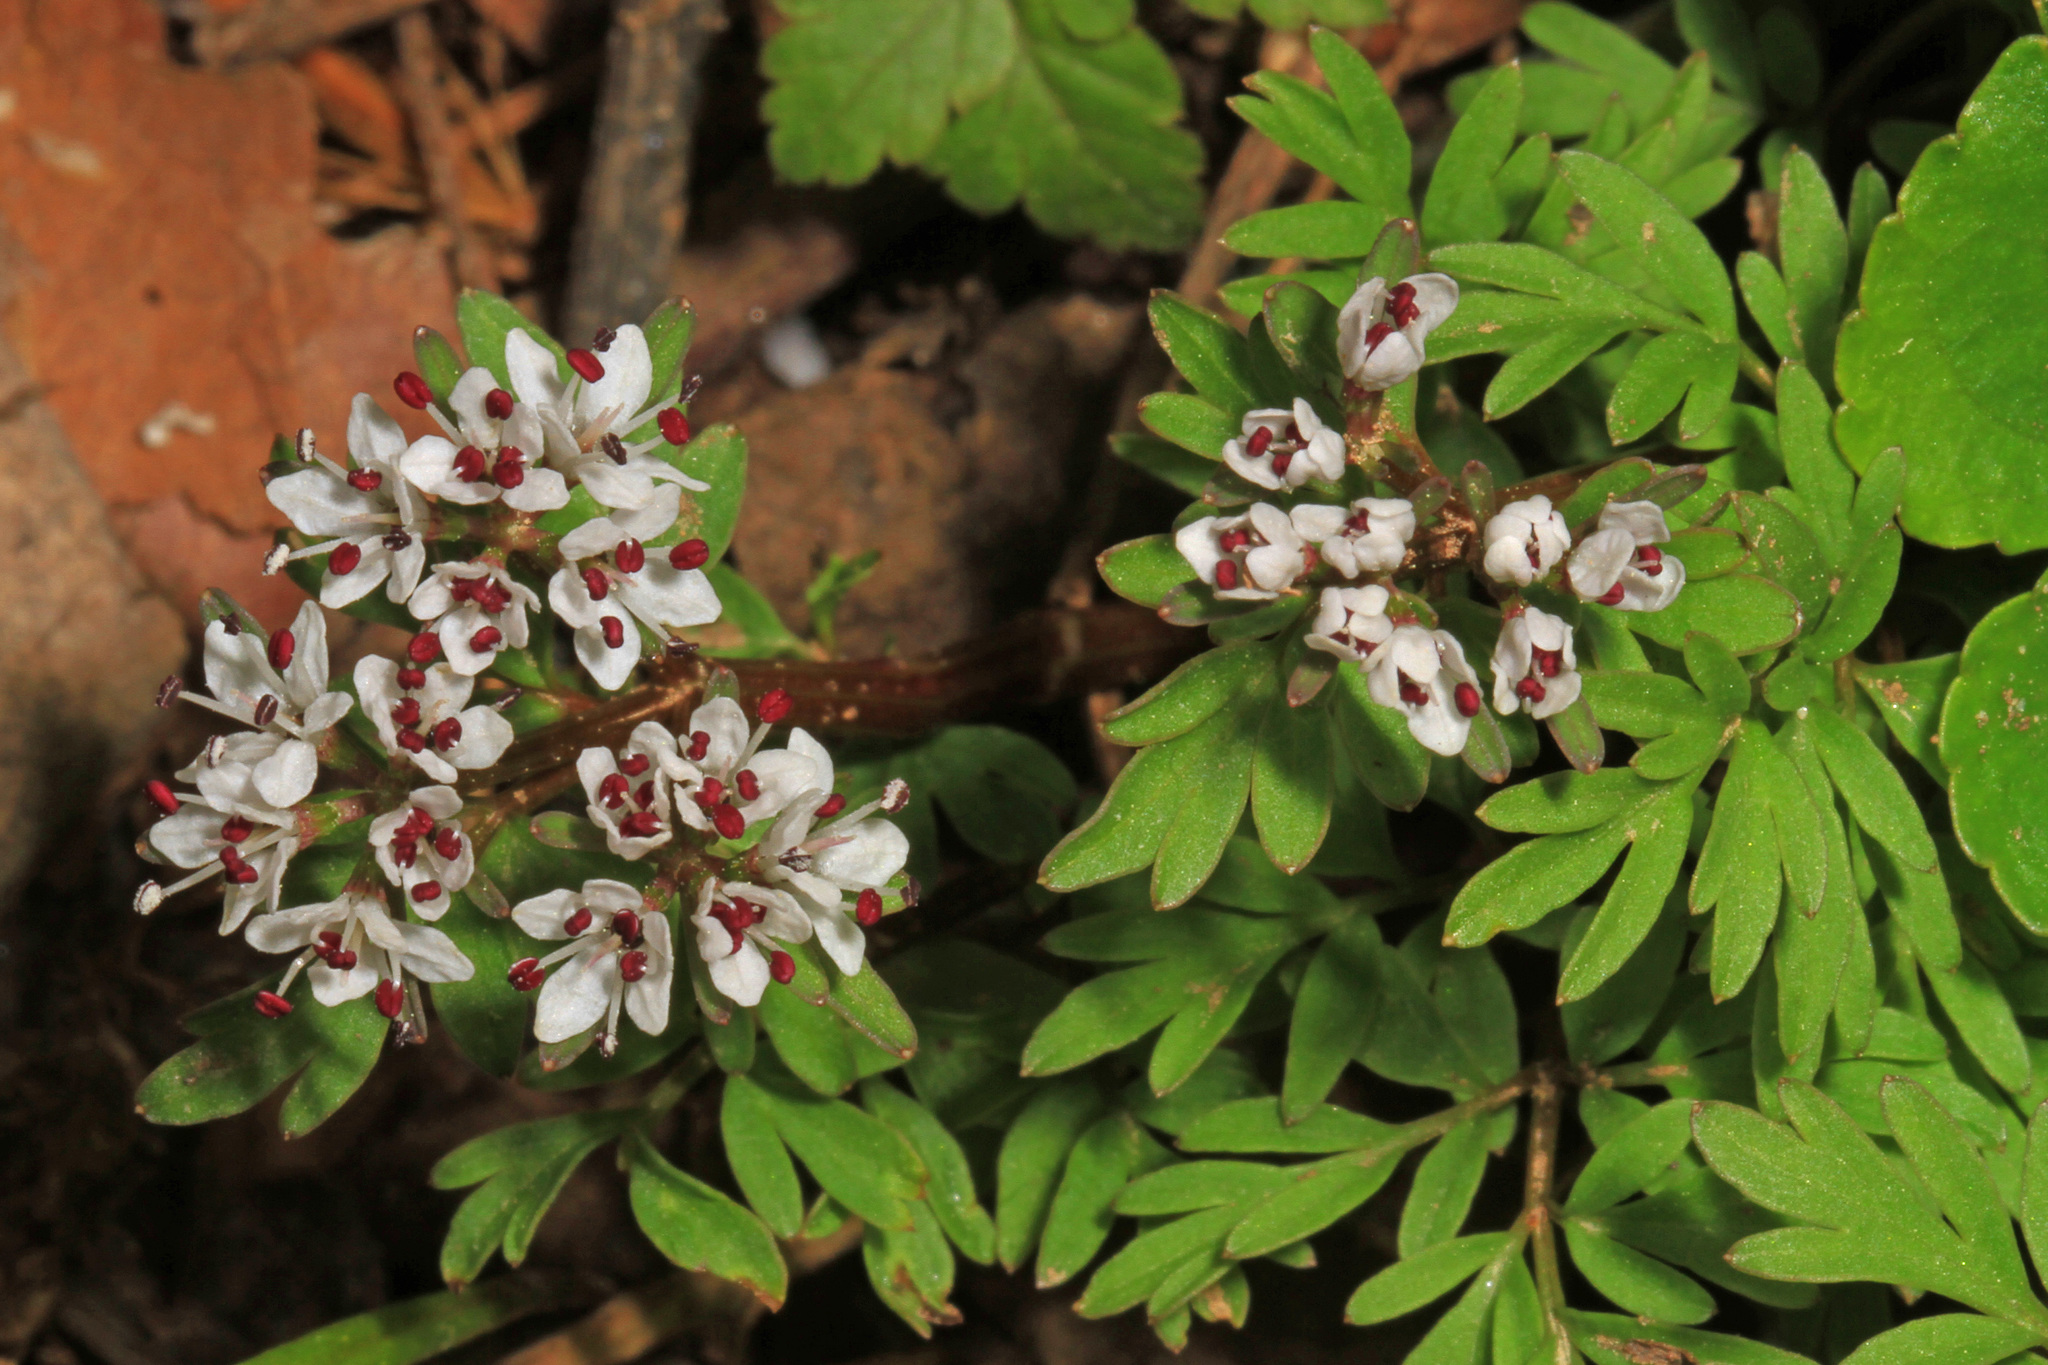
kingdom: Plantae
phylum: Tracheophyta
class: Magnoliopsida
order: Apiales
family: Apiaceae
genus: Erigenia
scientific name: Erigenia bulbosa
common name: Pepper-and-salt
